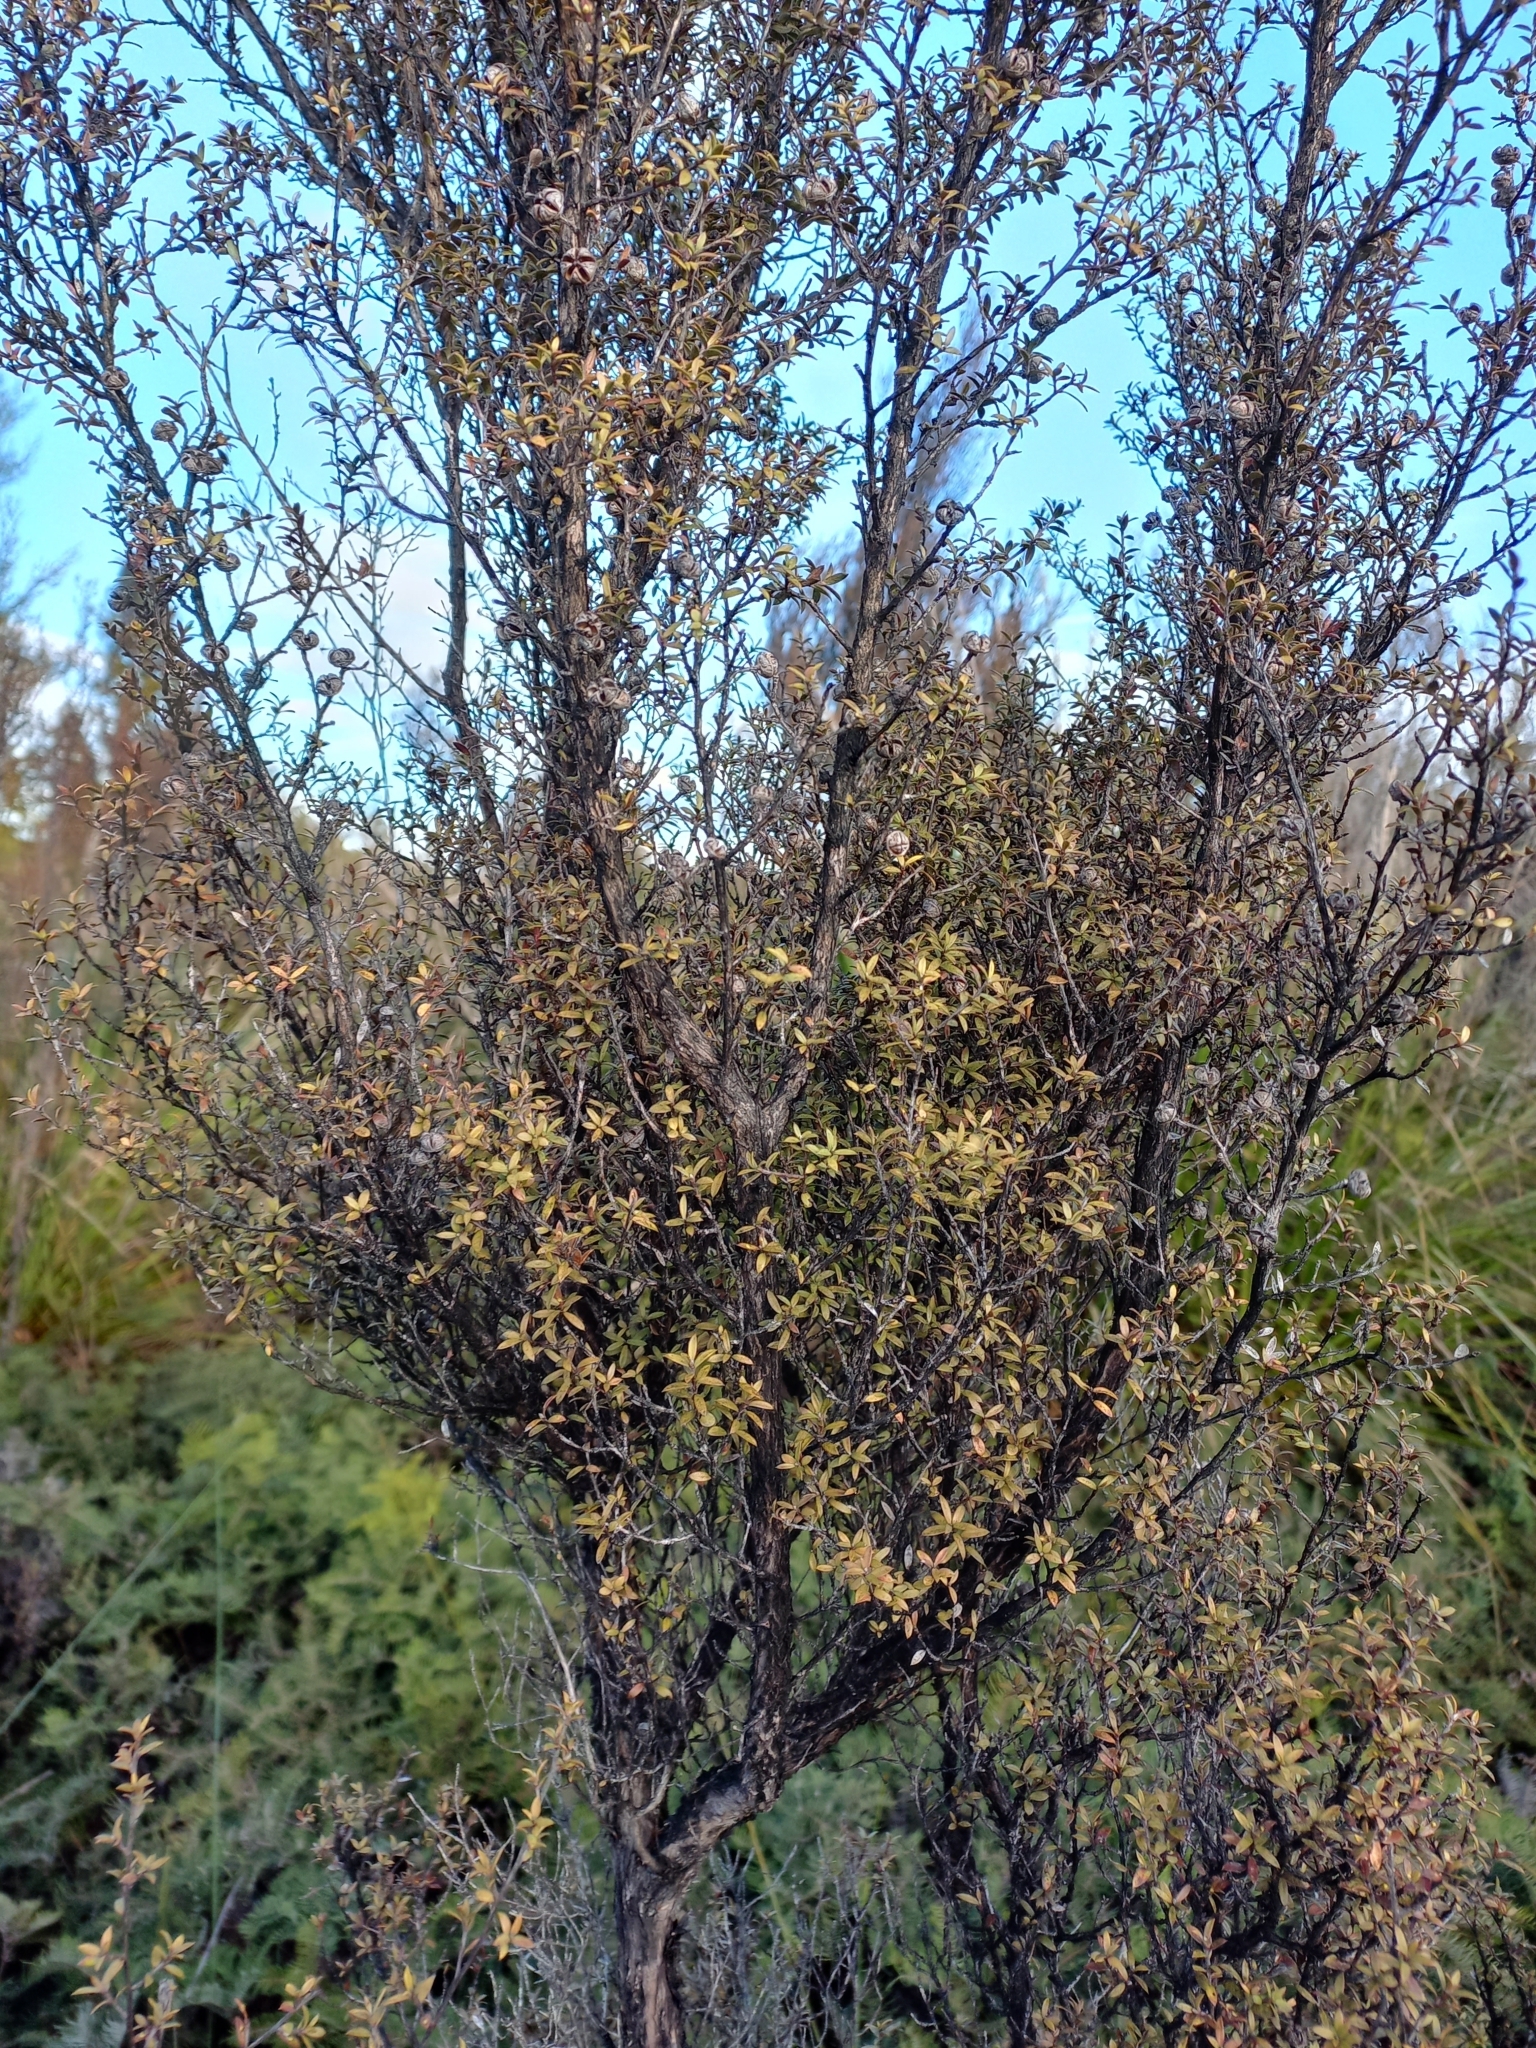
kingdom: Plantae
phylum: Tracheophyta
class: Magnoliopsida
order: Myrtales
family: Myrtaceae
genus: Leptospermum
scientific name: Leptospermum scoparium
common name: Broom tea-tree
